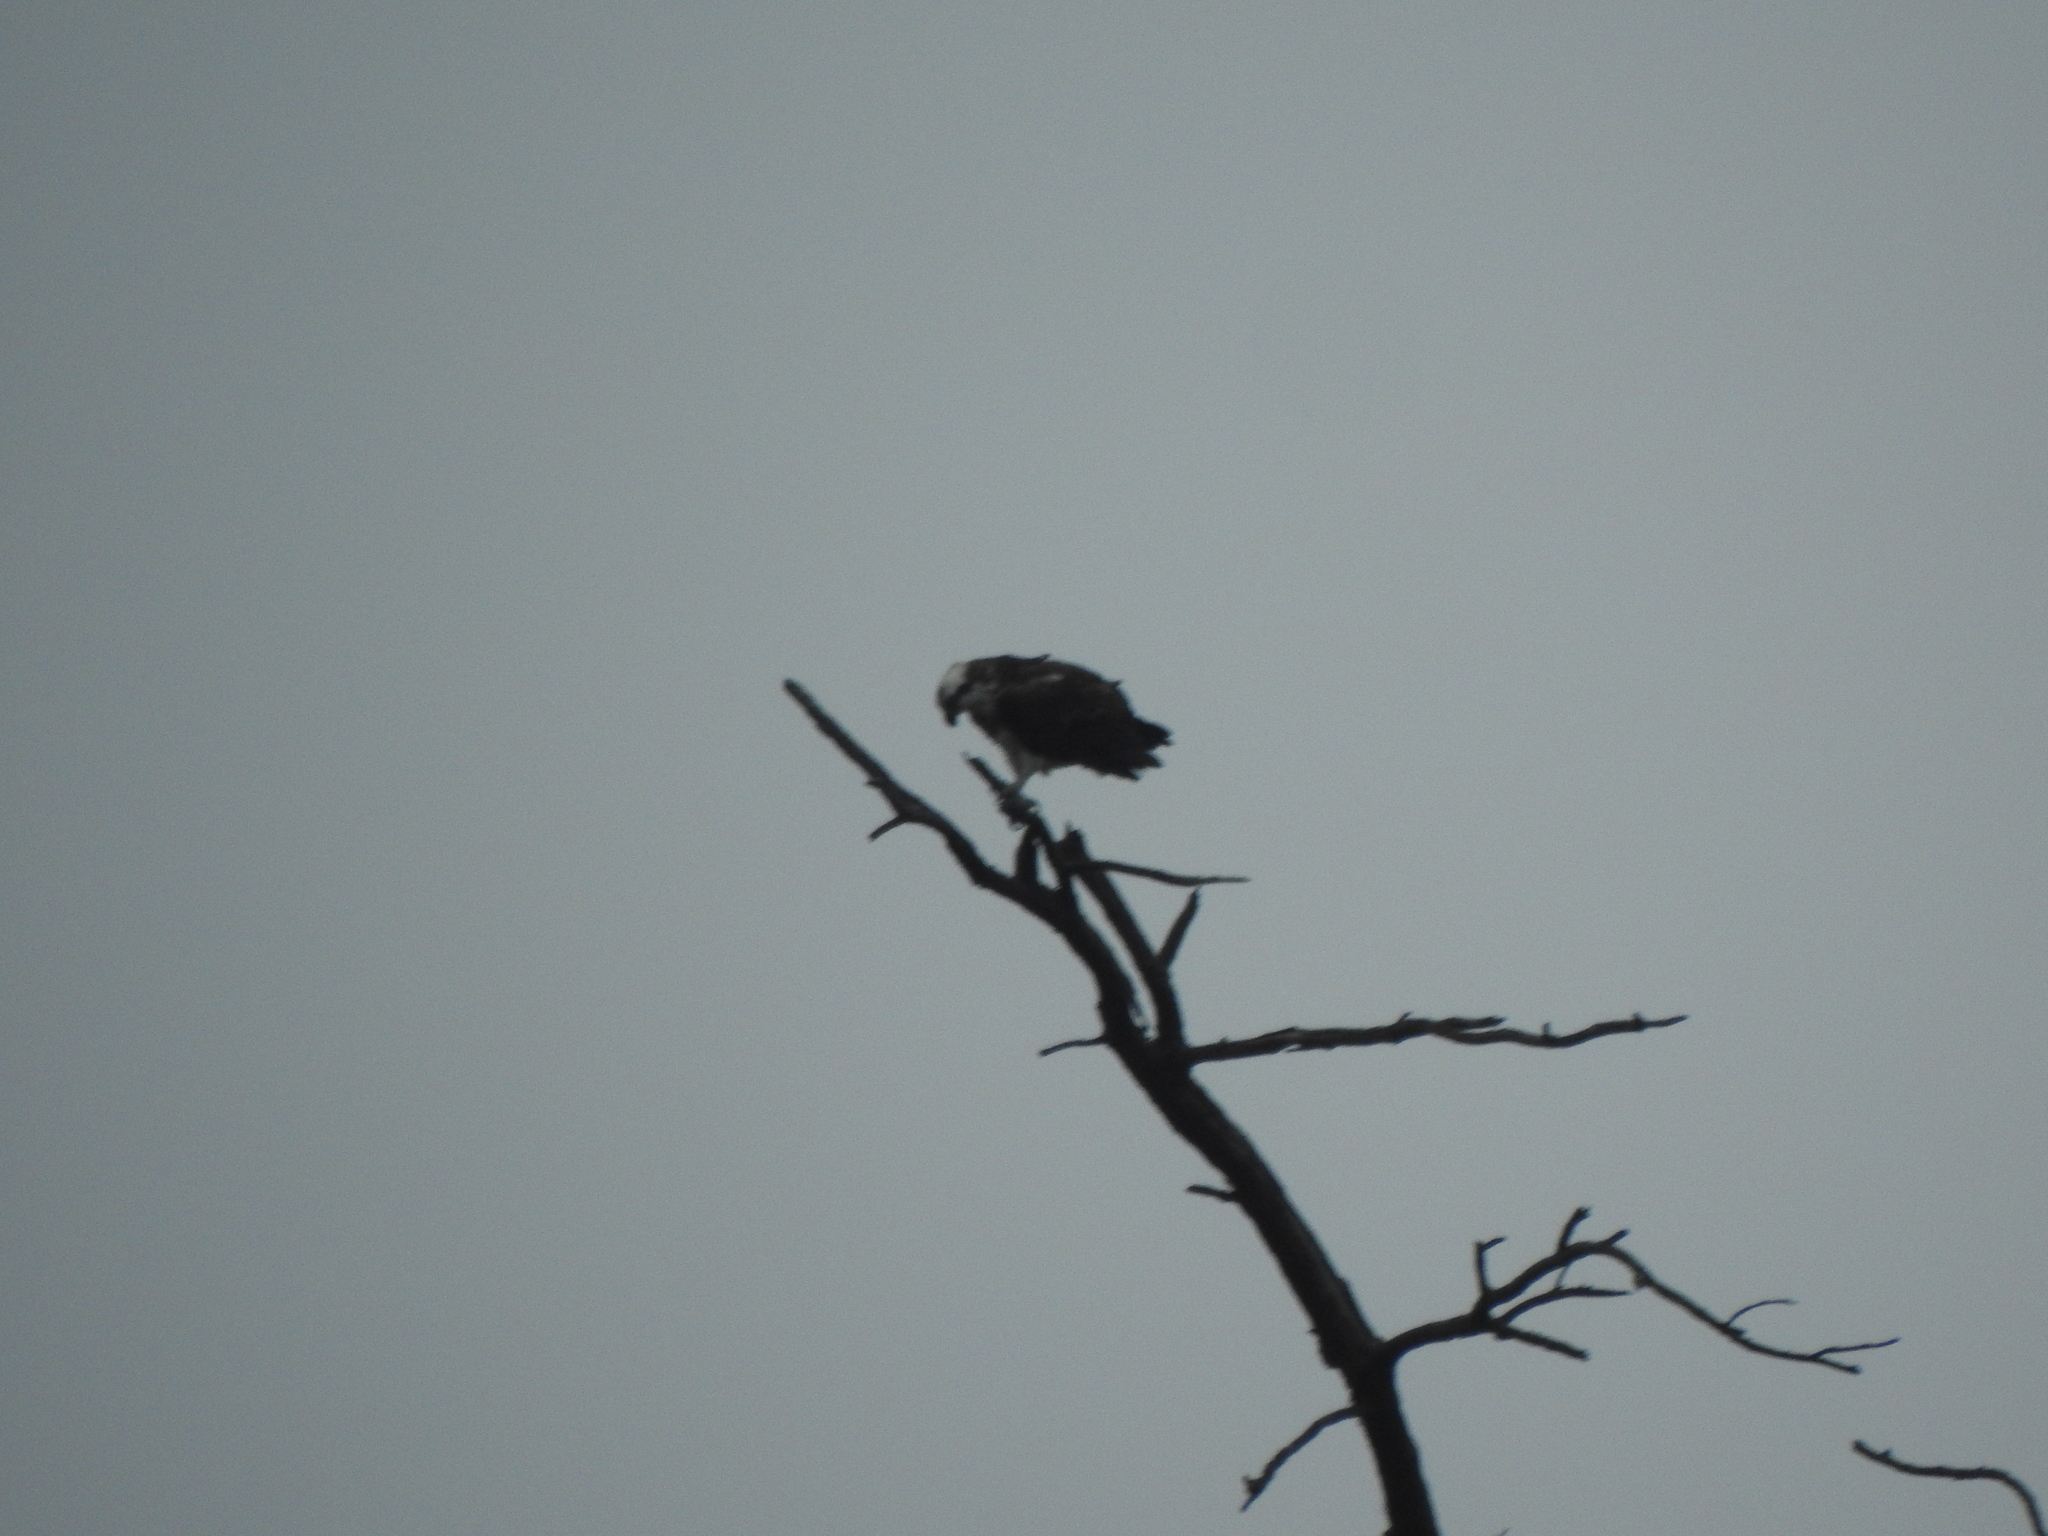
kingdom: Animalia
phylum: Chordata
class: Aves
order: Accipitriformes
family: Pandionidae
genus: Pandion
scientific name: Pandion haliaetus
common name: Osprey
